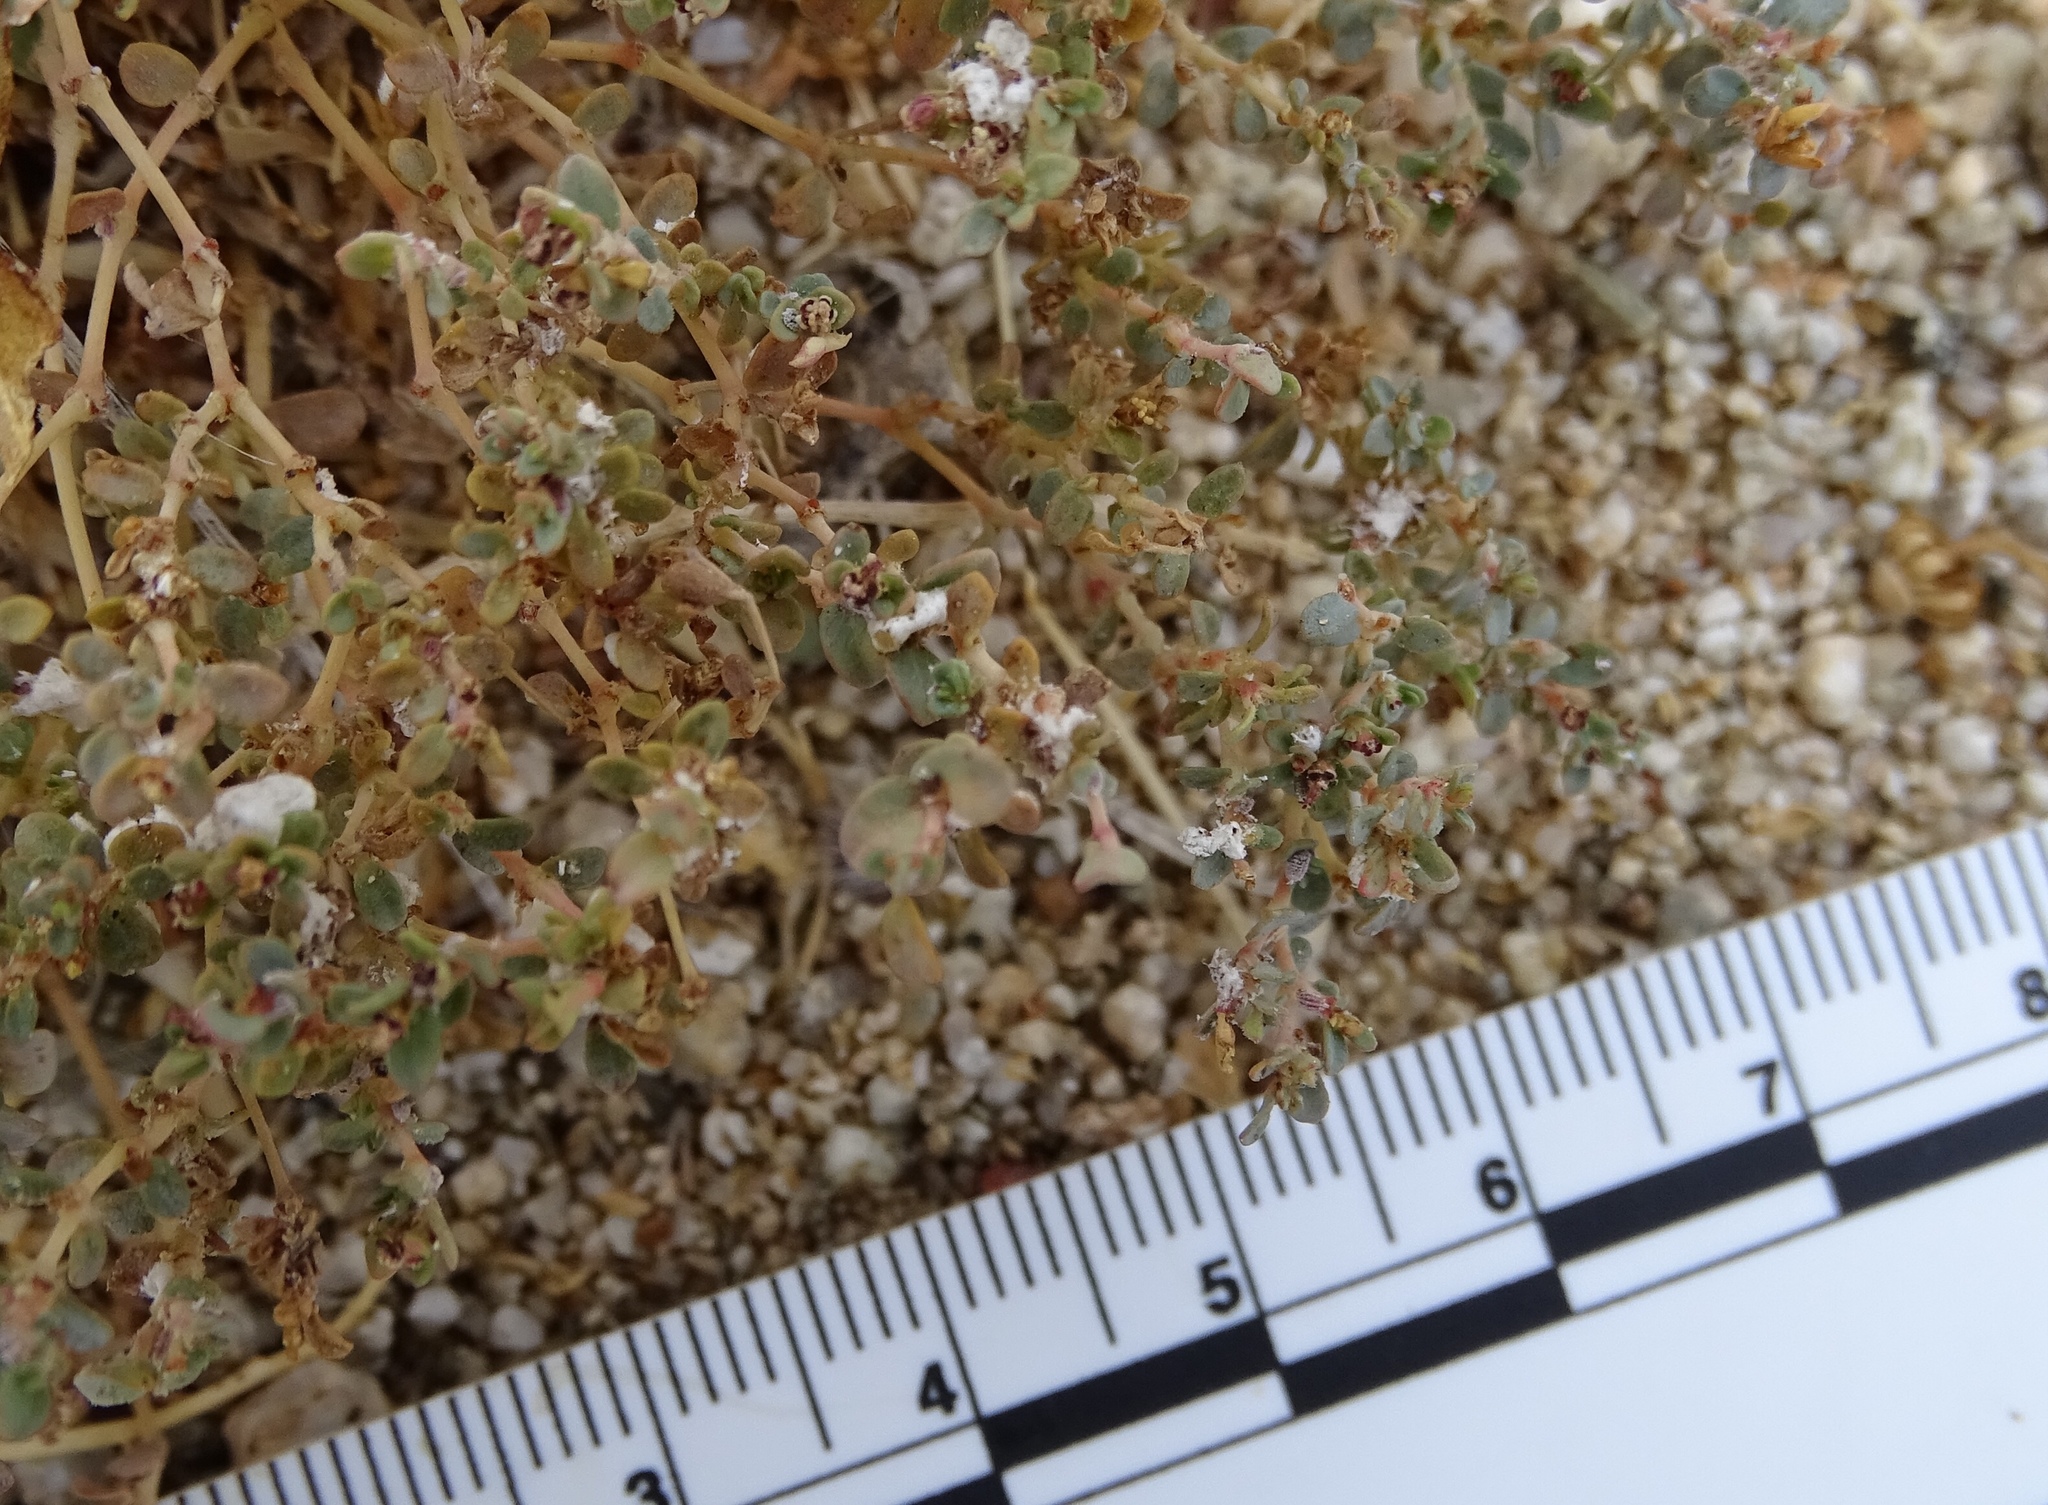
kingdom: Plantae
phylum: Tracheophyta
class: Magnoliopsida
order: Malpighiales
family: Euphorbiaceae
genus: Euphorbia
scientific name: Euphorbia polycarpa
